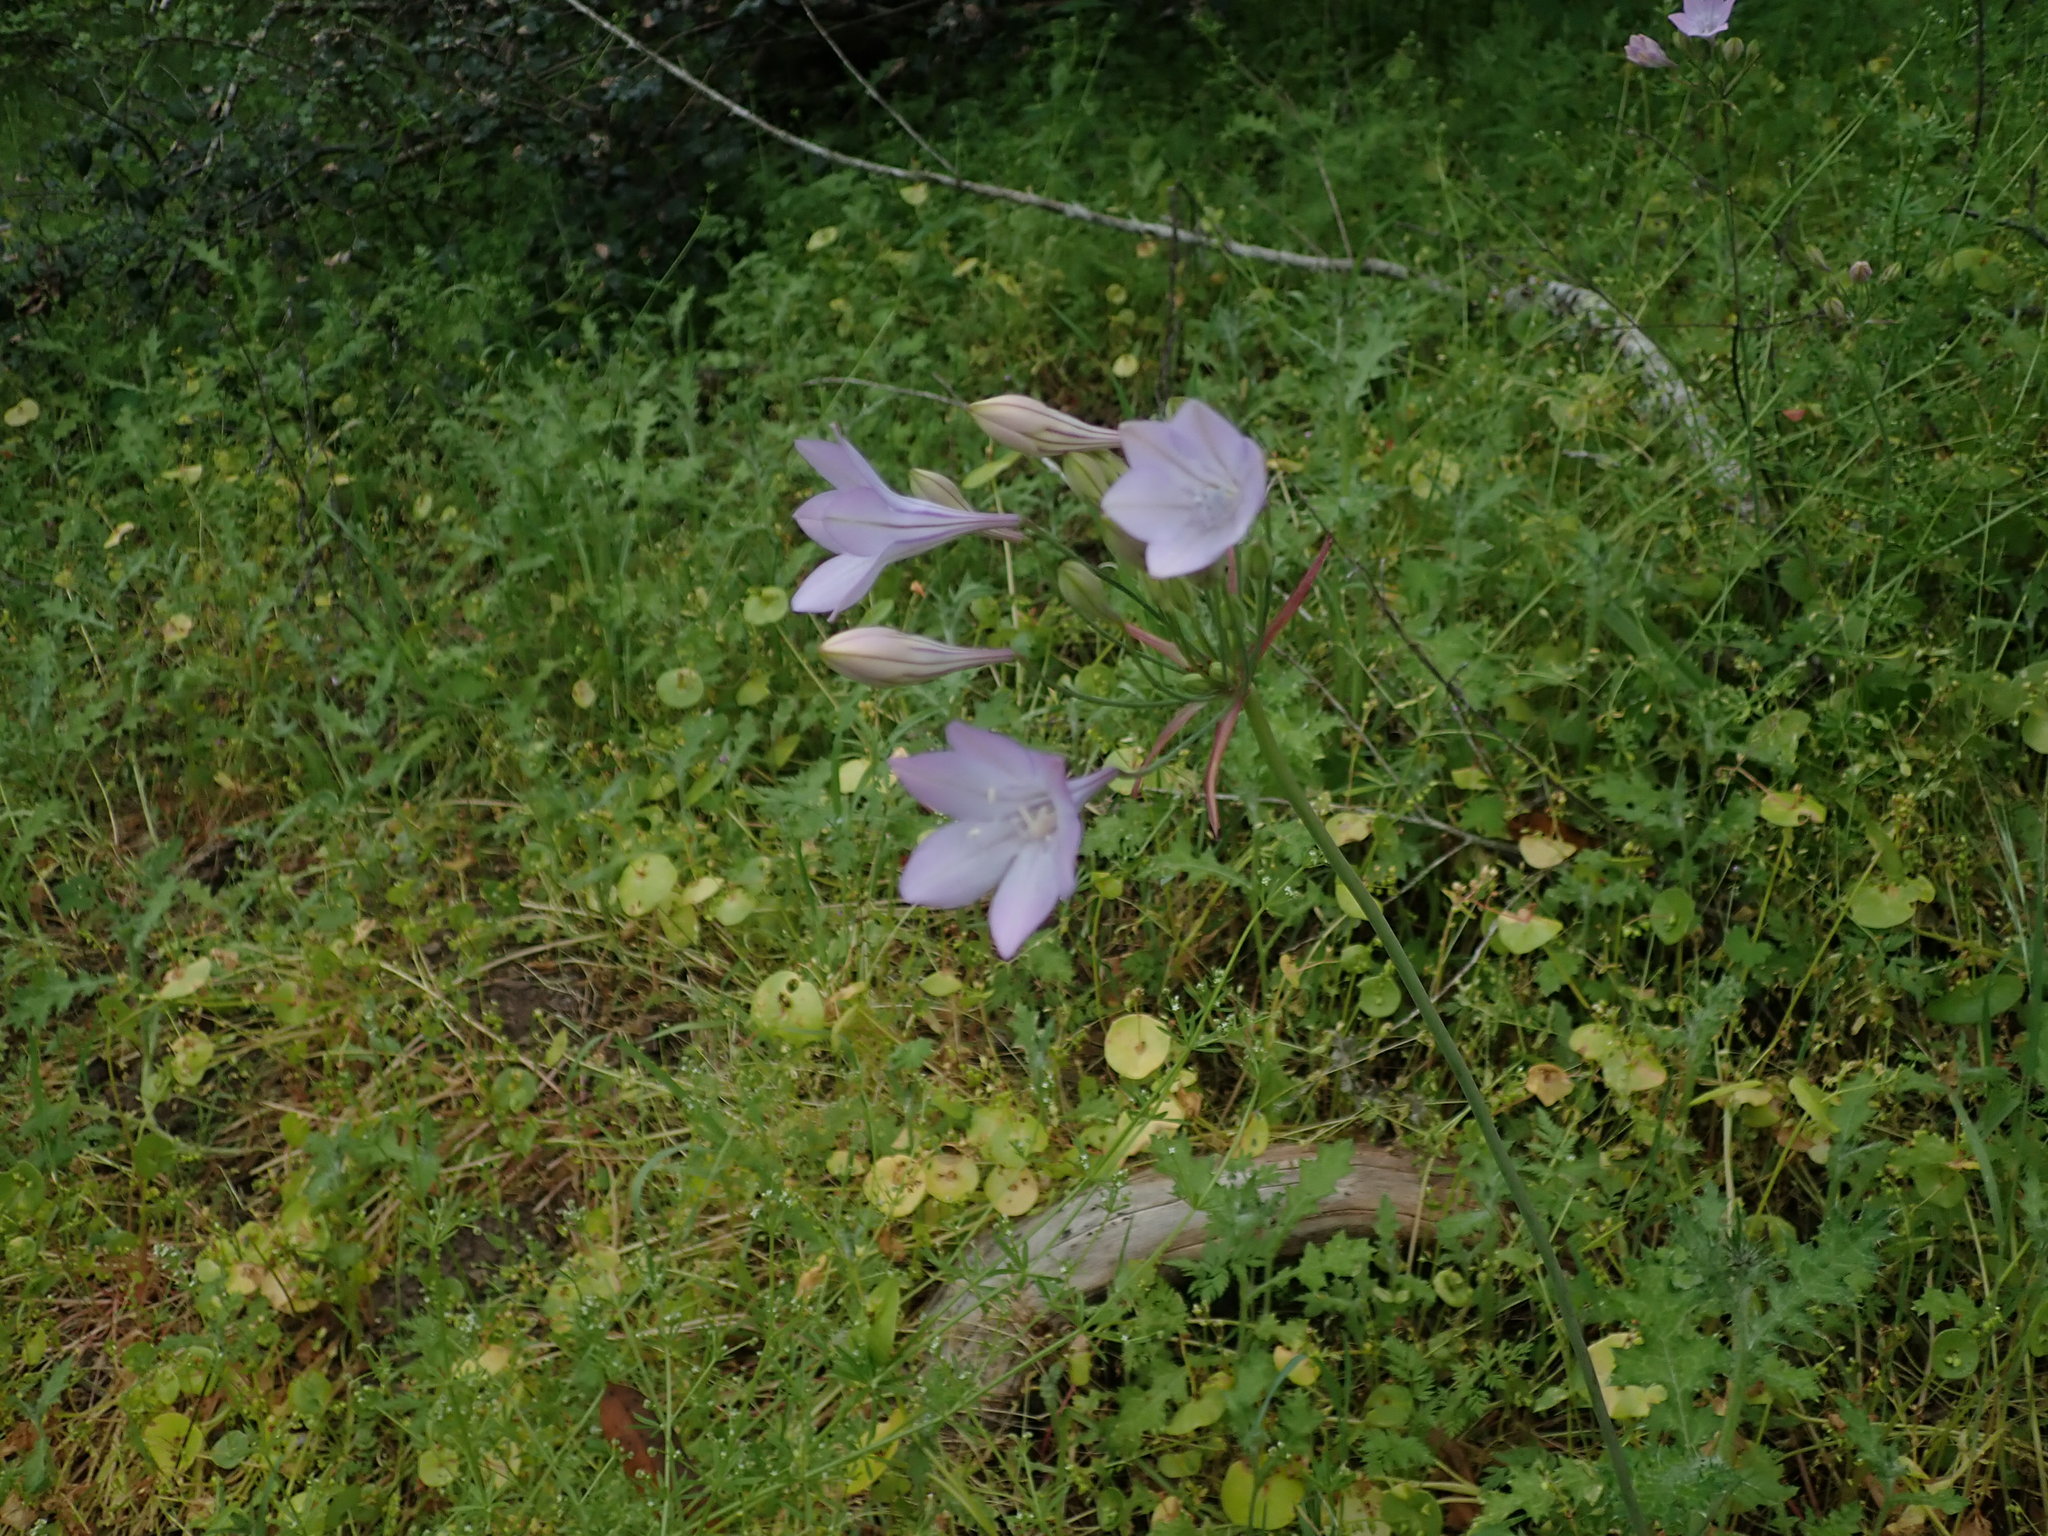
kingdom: Plantae
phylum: Tracheophyta
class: Liliopsida
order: Asparagales
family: Asparagaceae
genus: Triteleia
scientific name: Triteleia laxa
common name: Triplet-lily
